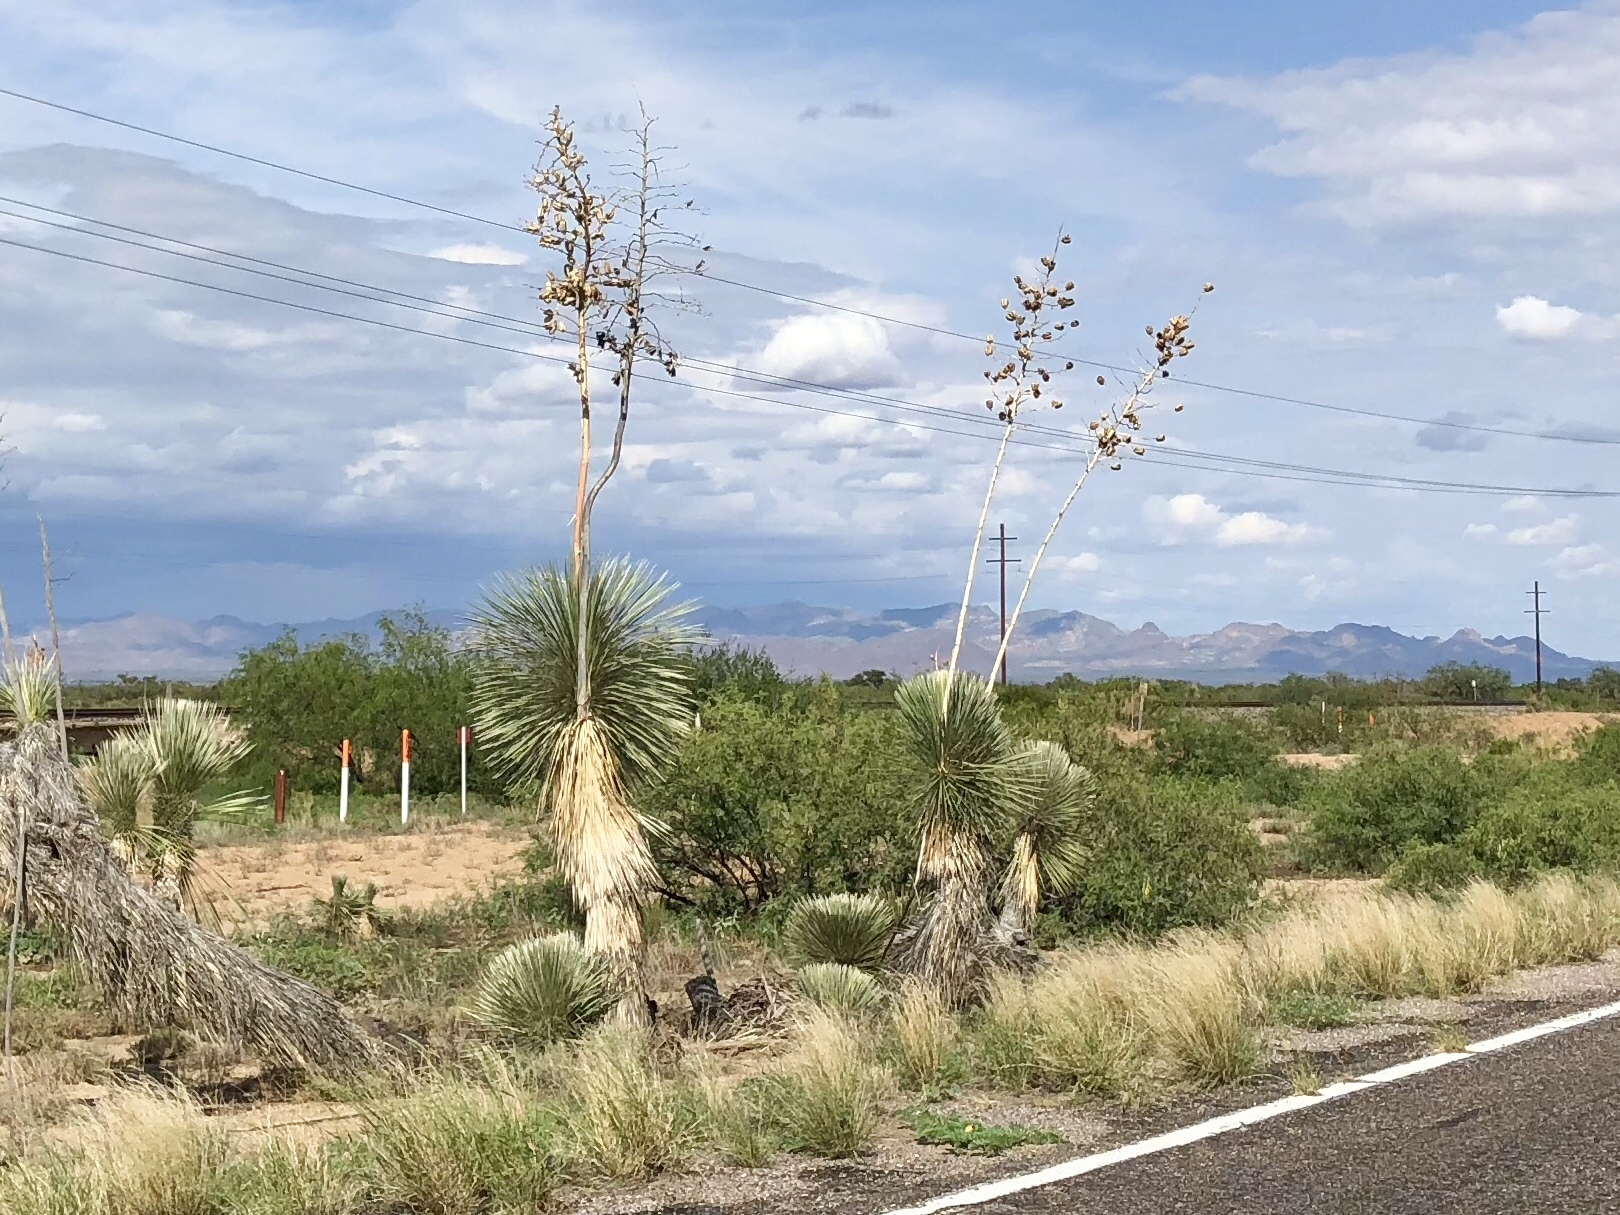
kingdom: Plantae
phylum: Tracheophyta
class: Liliopsida
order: Asparagales
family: Asparagaceae
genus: Yucca
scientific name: Yucca elata
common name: Palmella
